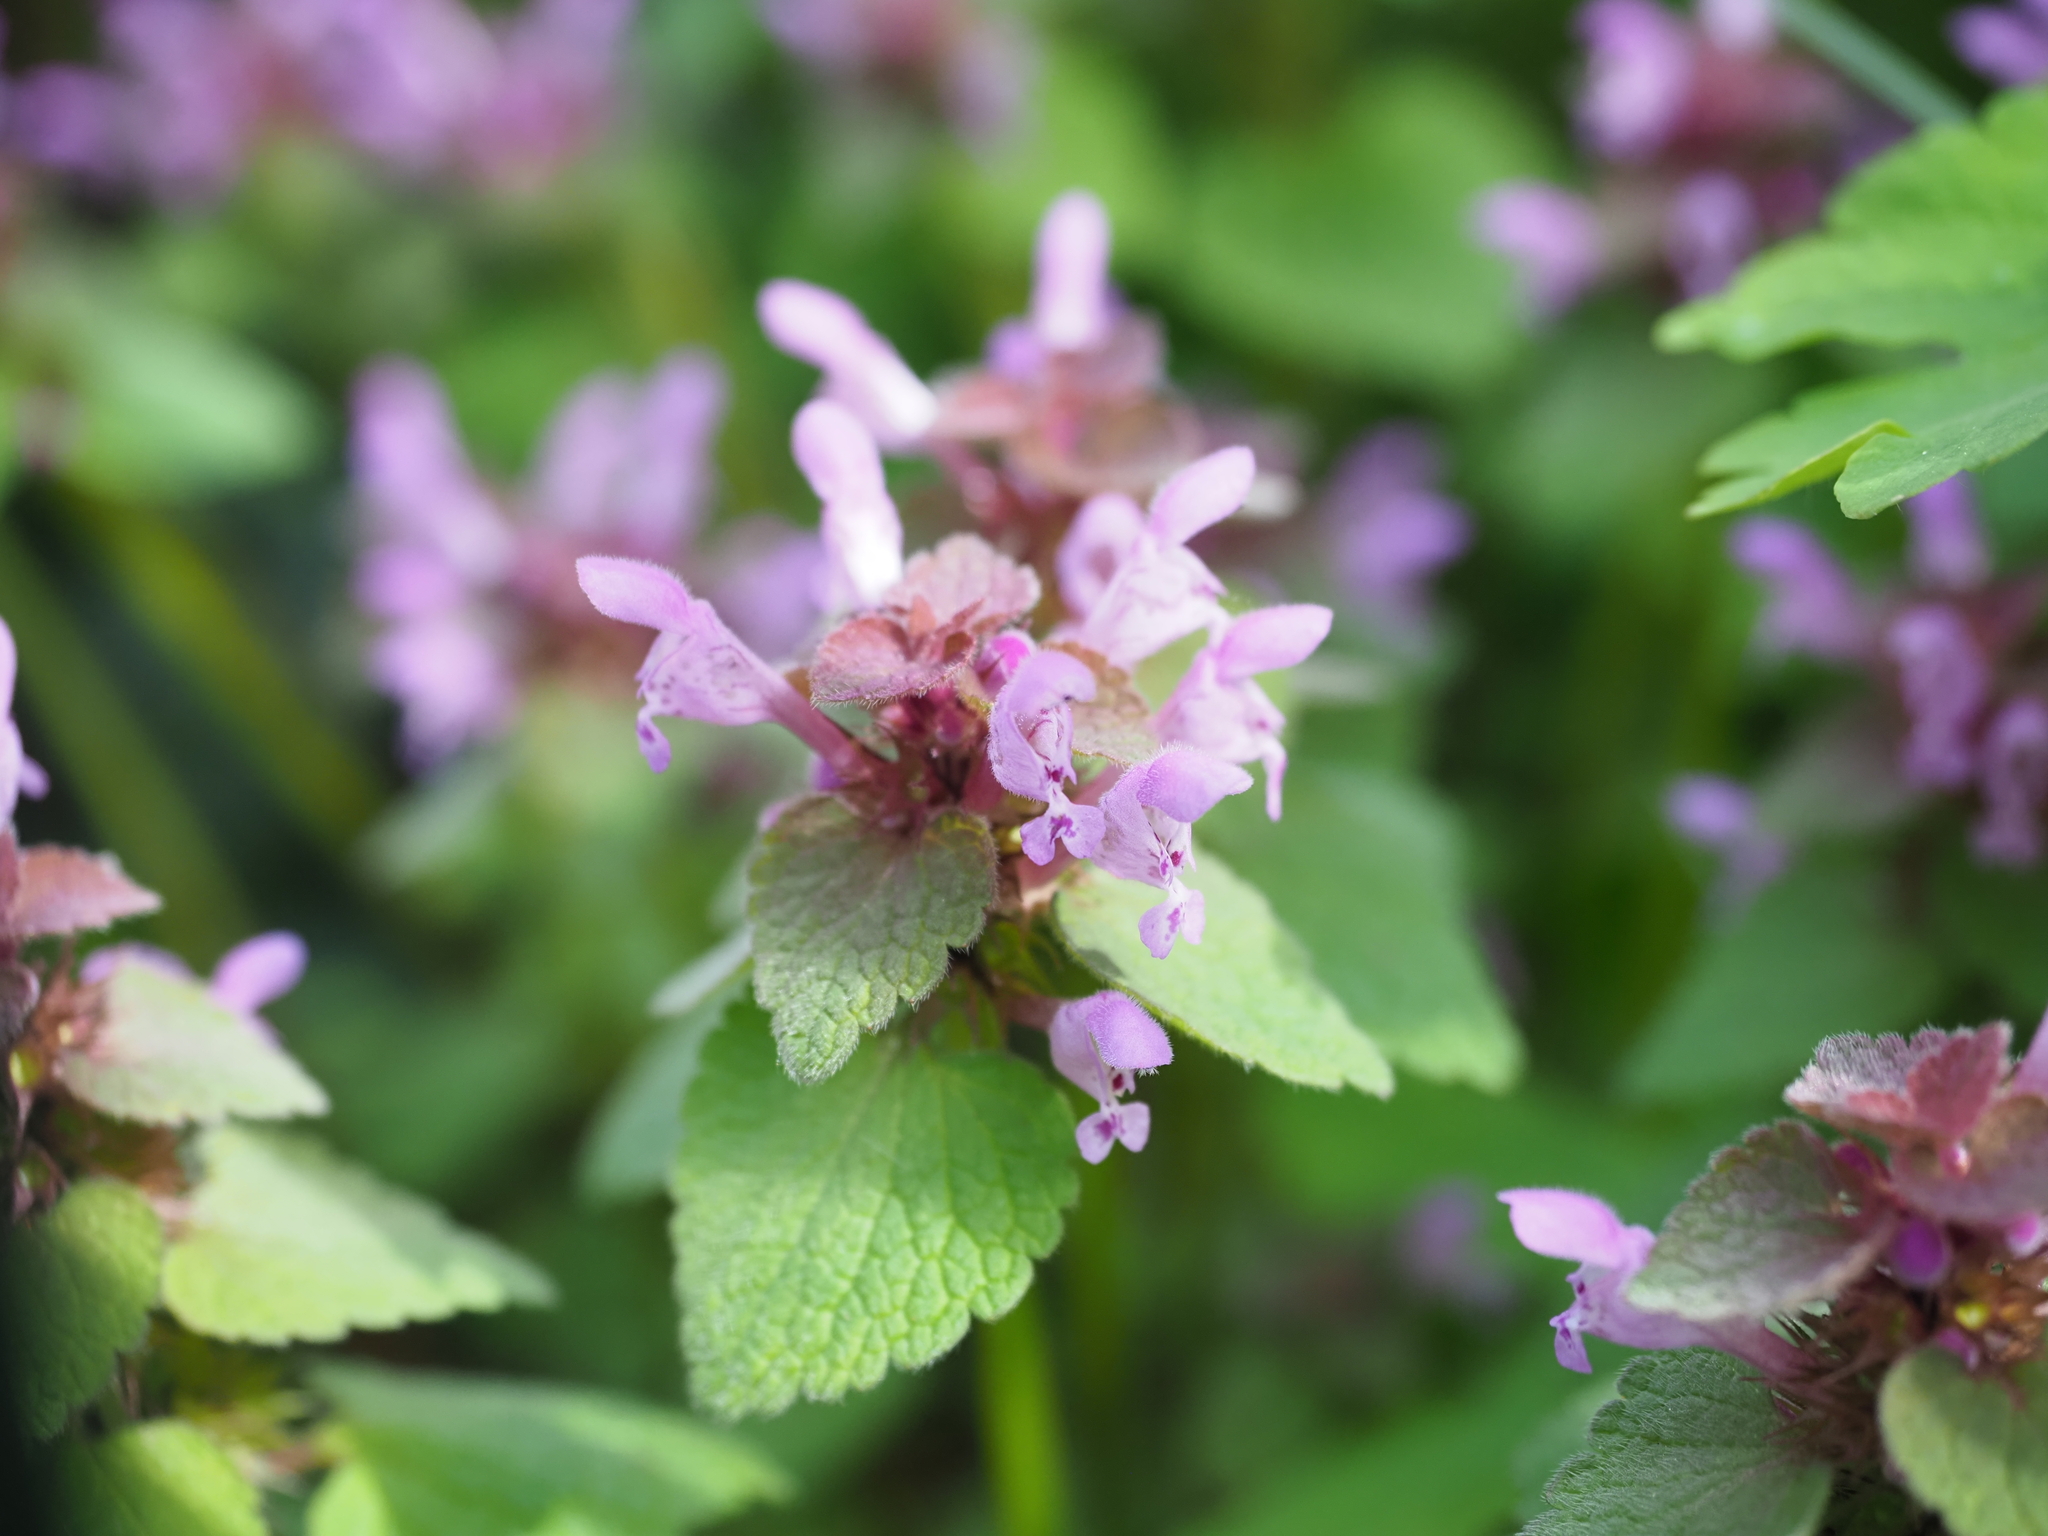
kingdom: Plantae
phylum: Tracheophyta
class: Magnoliopsida
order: Lamiales
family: Lamiaceae
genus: Lamium
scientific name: Lamium purpureum
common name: Red dead-nettle
